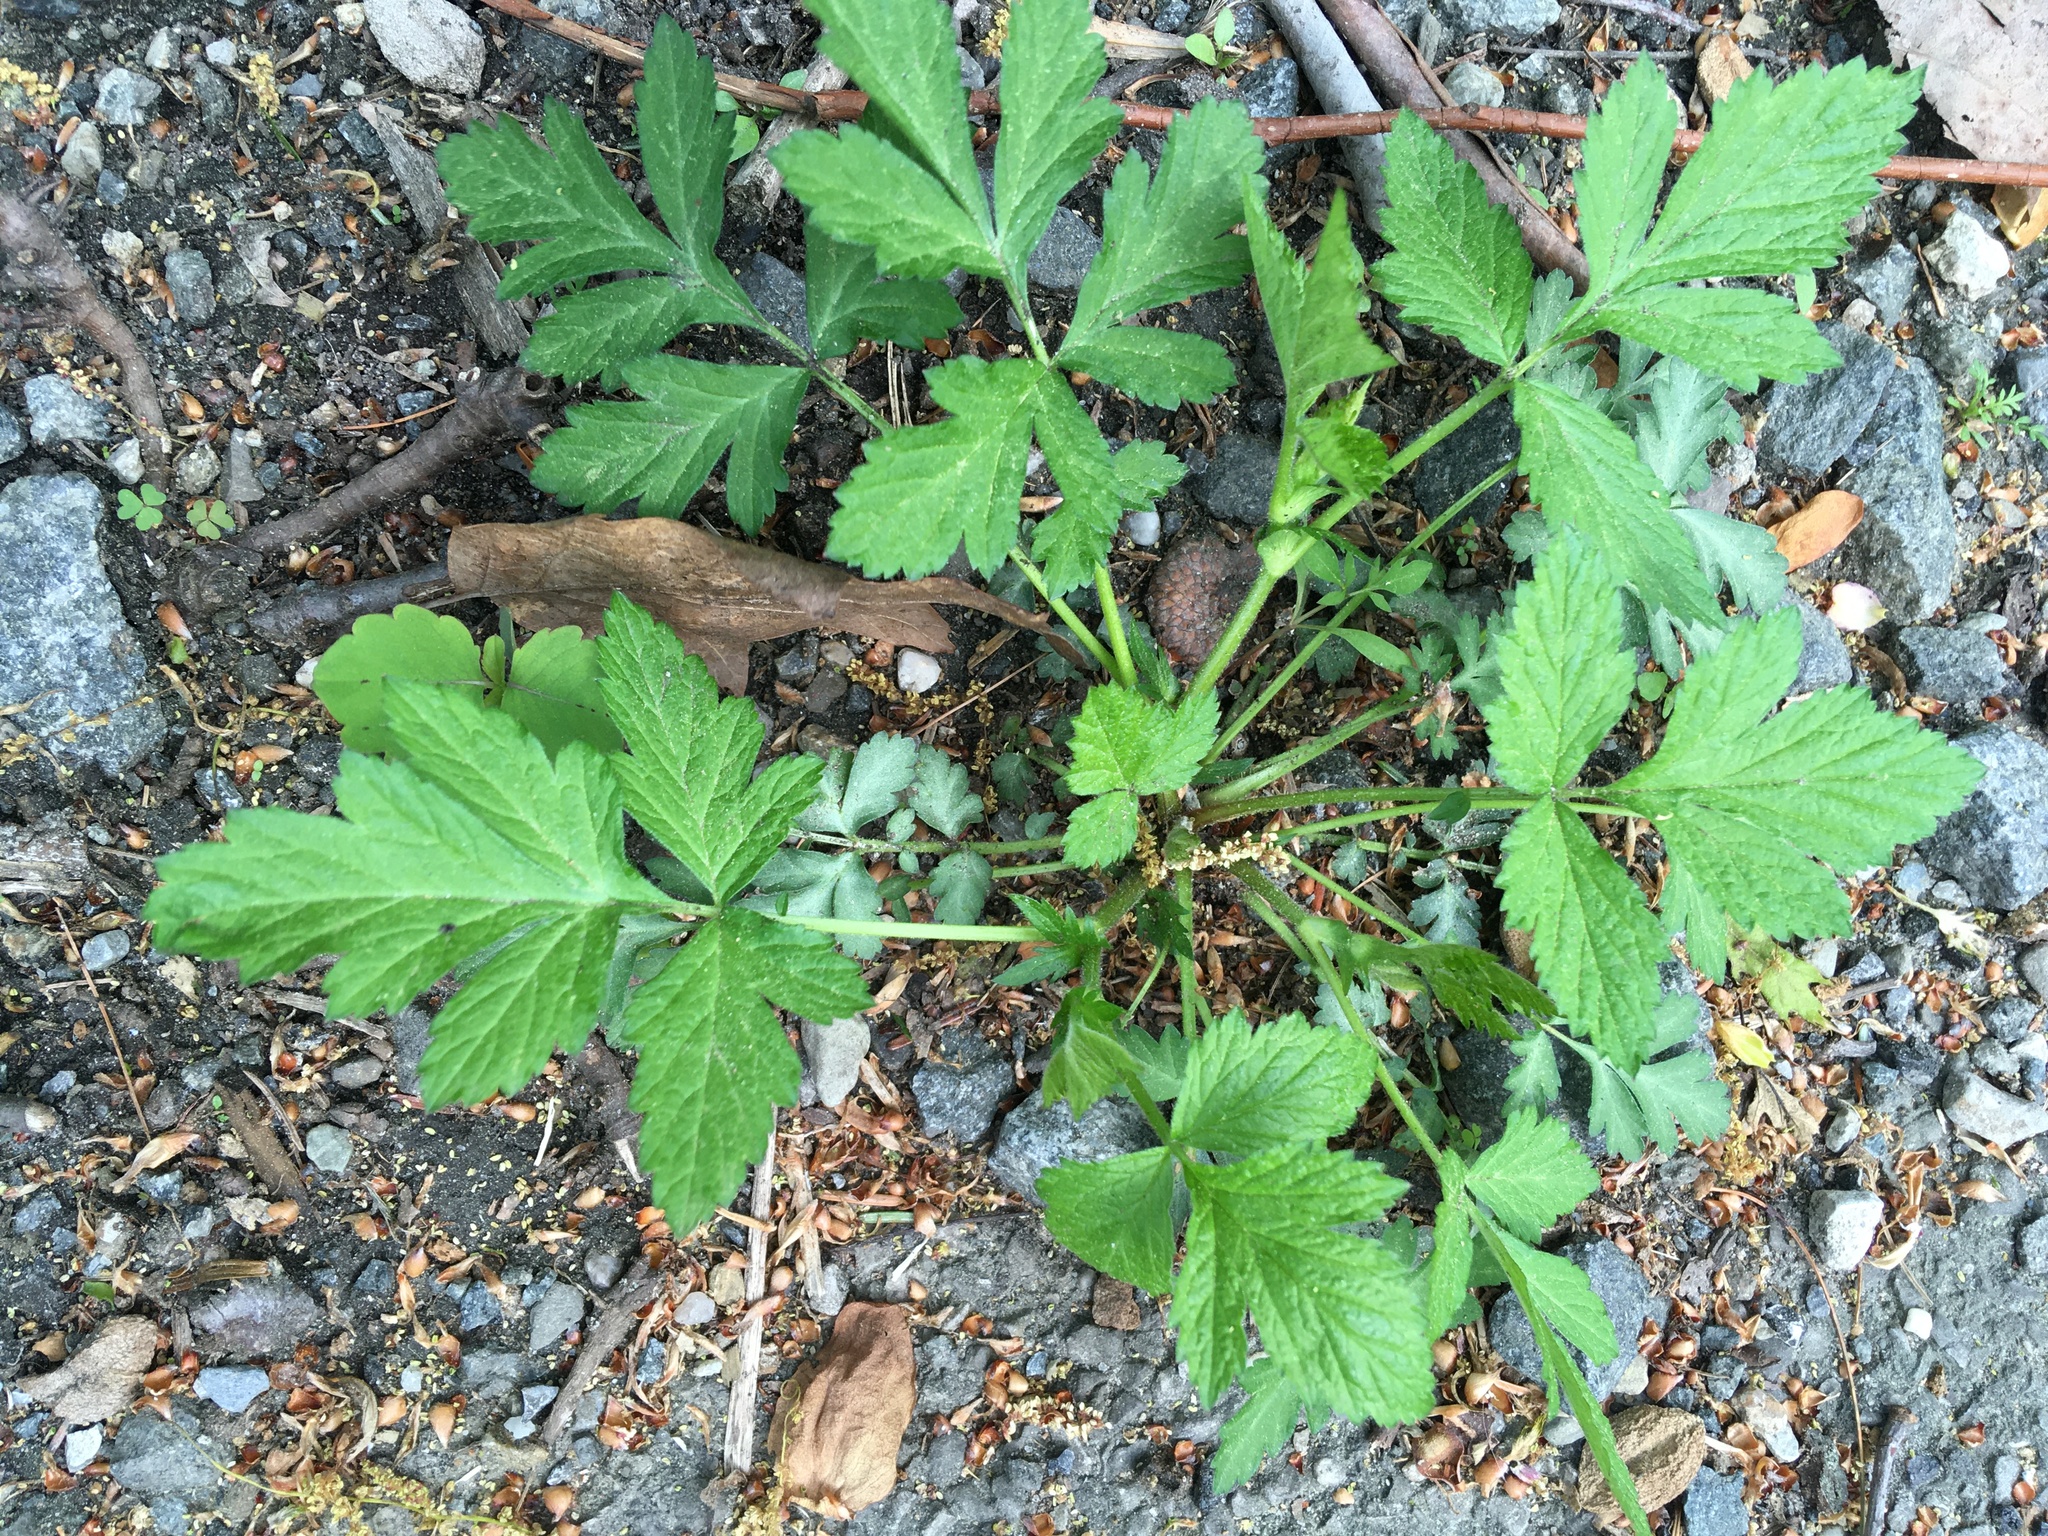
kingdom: Plantae
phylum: Tracheophyta
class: Magnoliopsida
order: Rosales
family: Rosaceae
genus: Geum
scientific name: Geum canadense
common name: White avens
